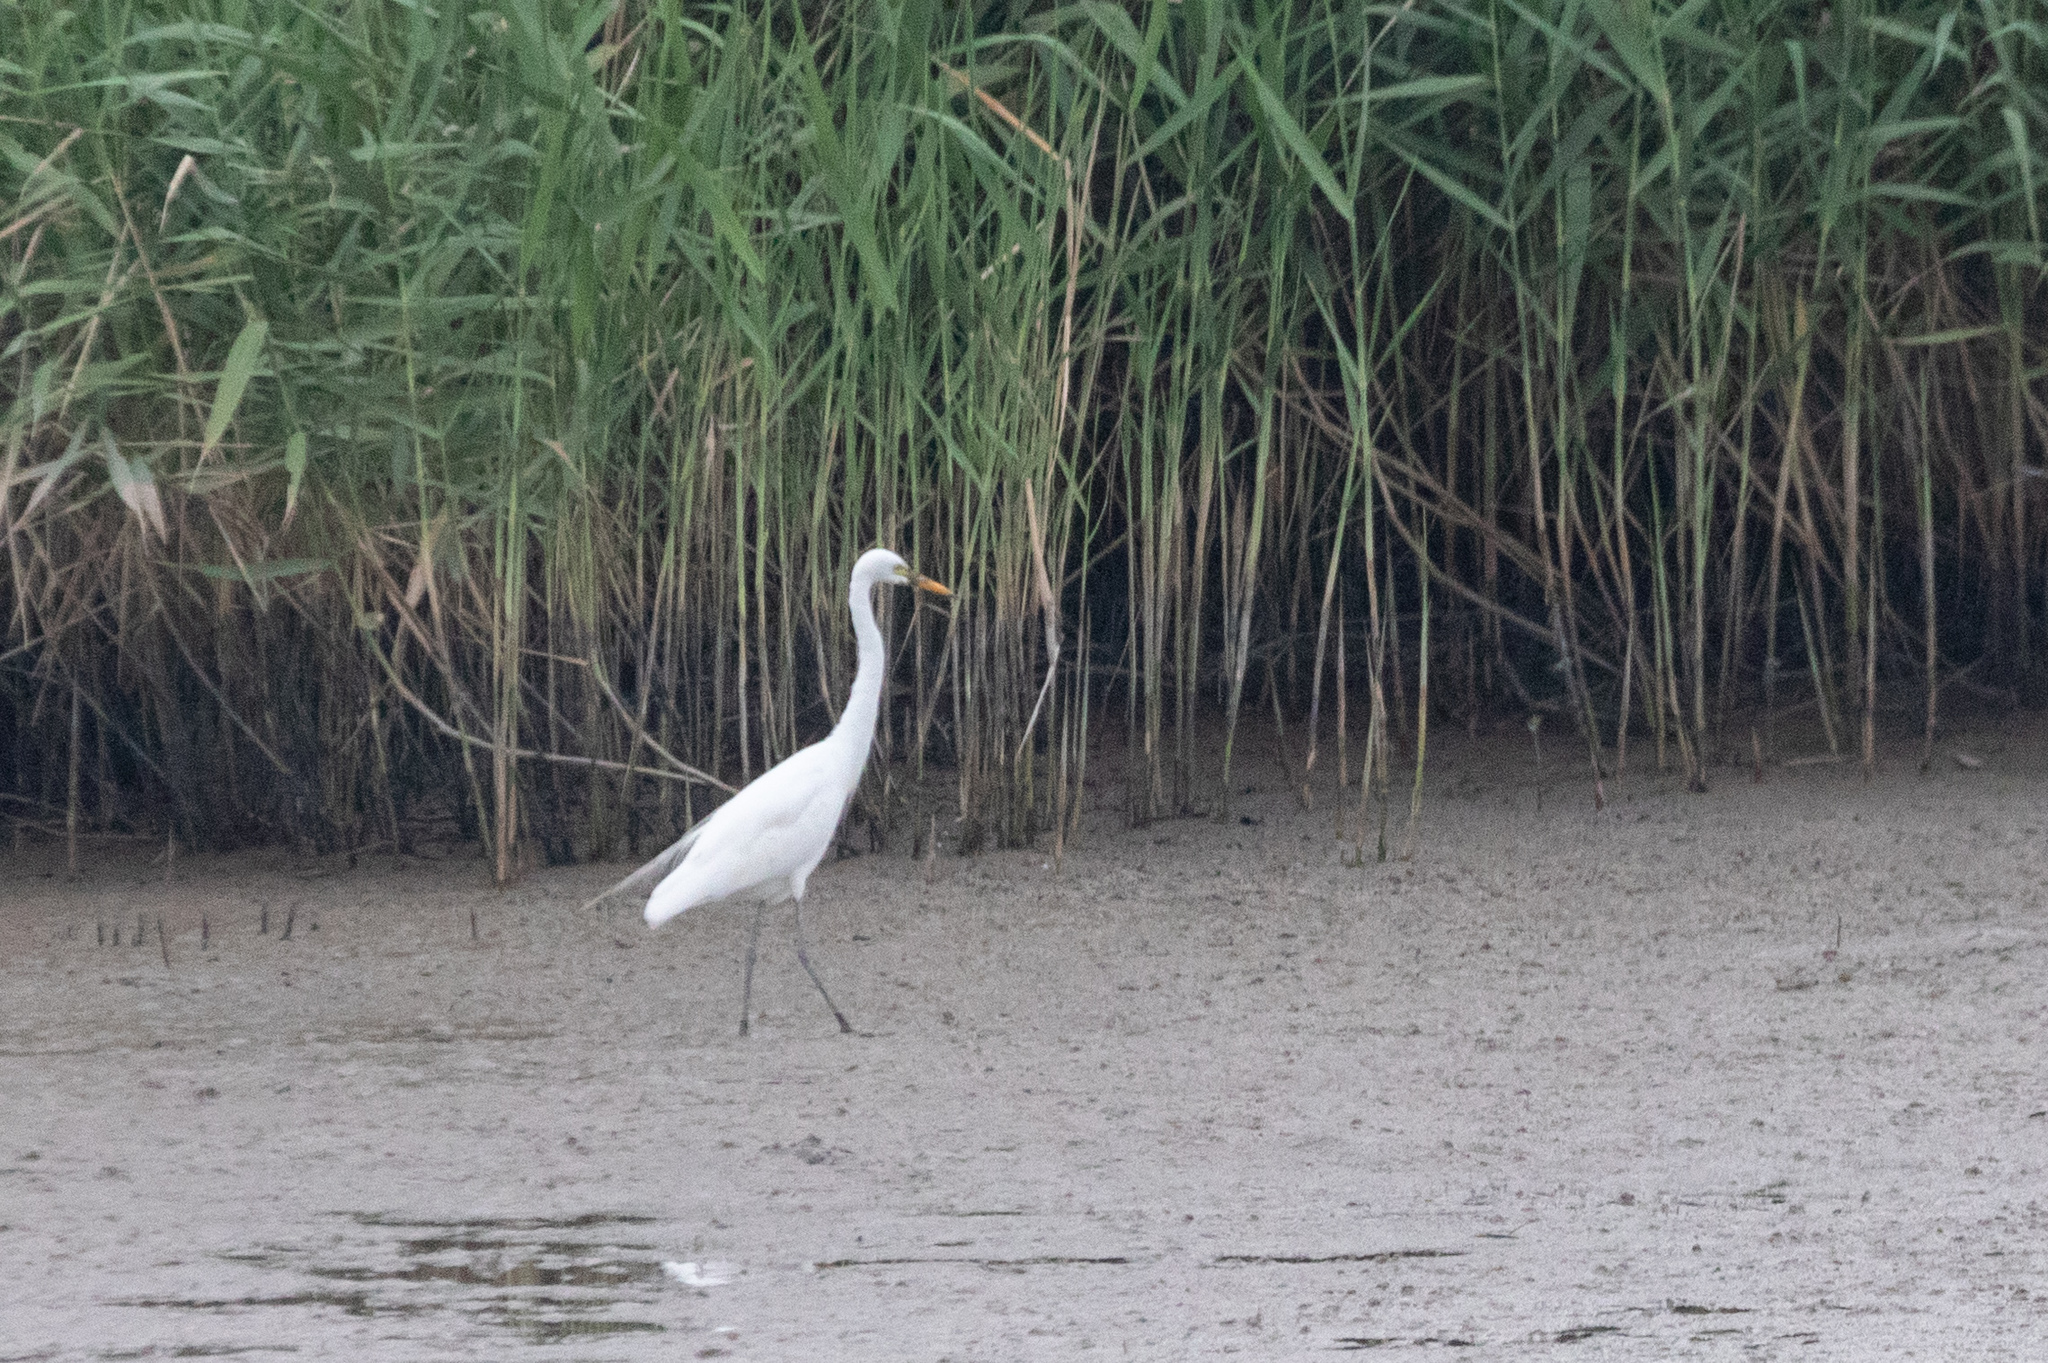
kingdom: Animalia
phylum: Chordata
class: Aves
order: Pelecaniformes
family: Ardeidae
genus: Egretta
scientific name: Egretta intermedia
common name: Intermediate egret
